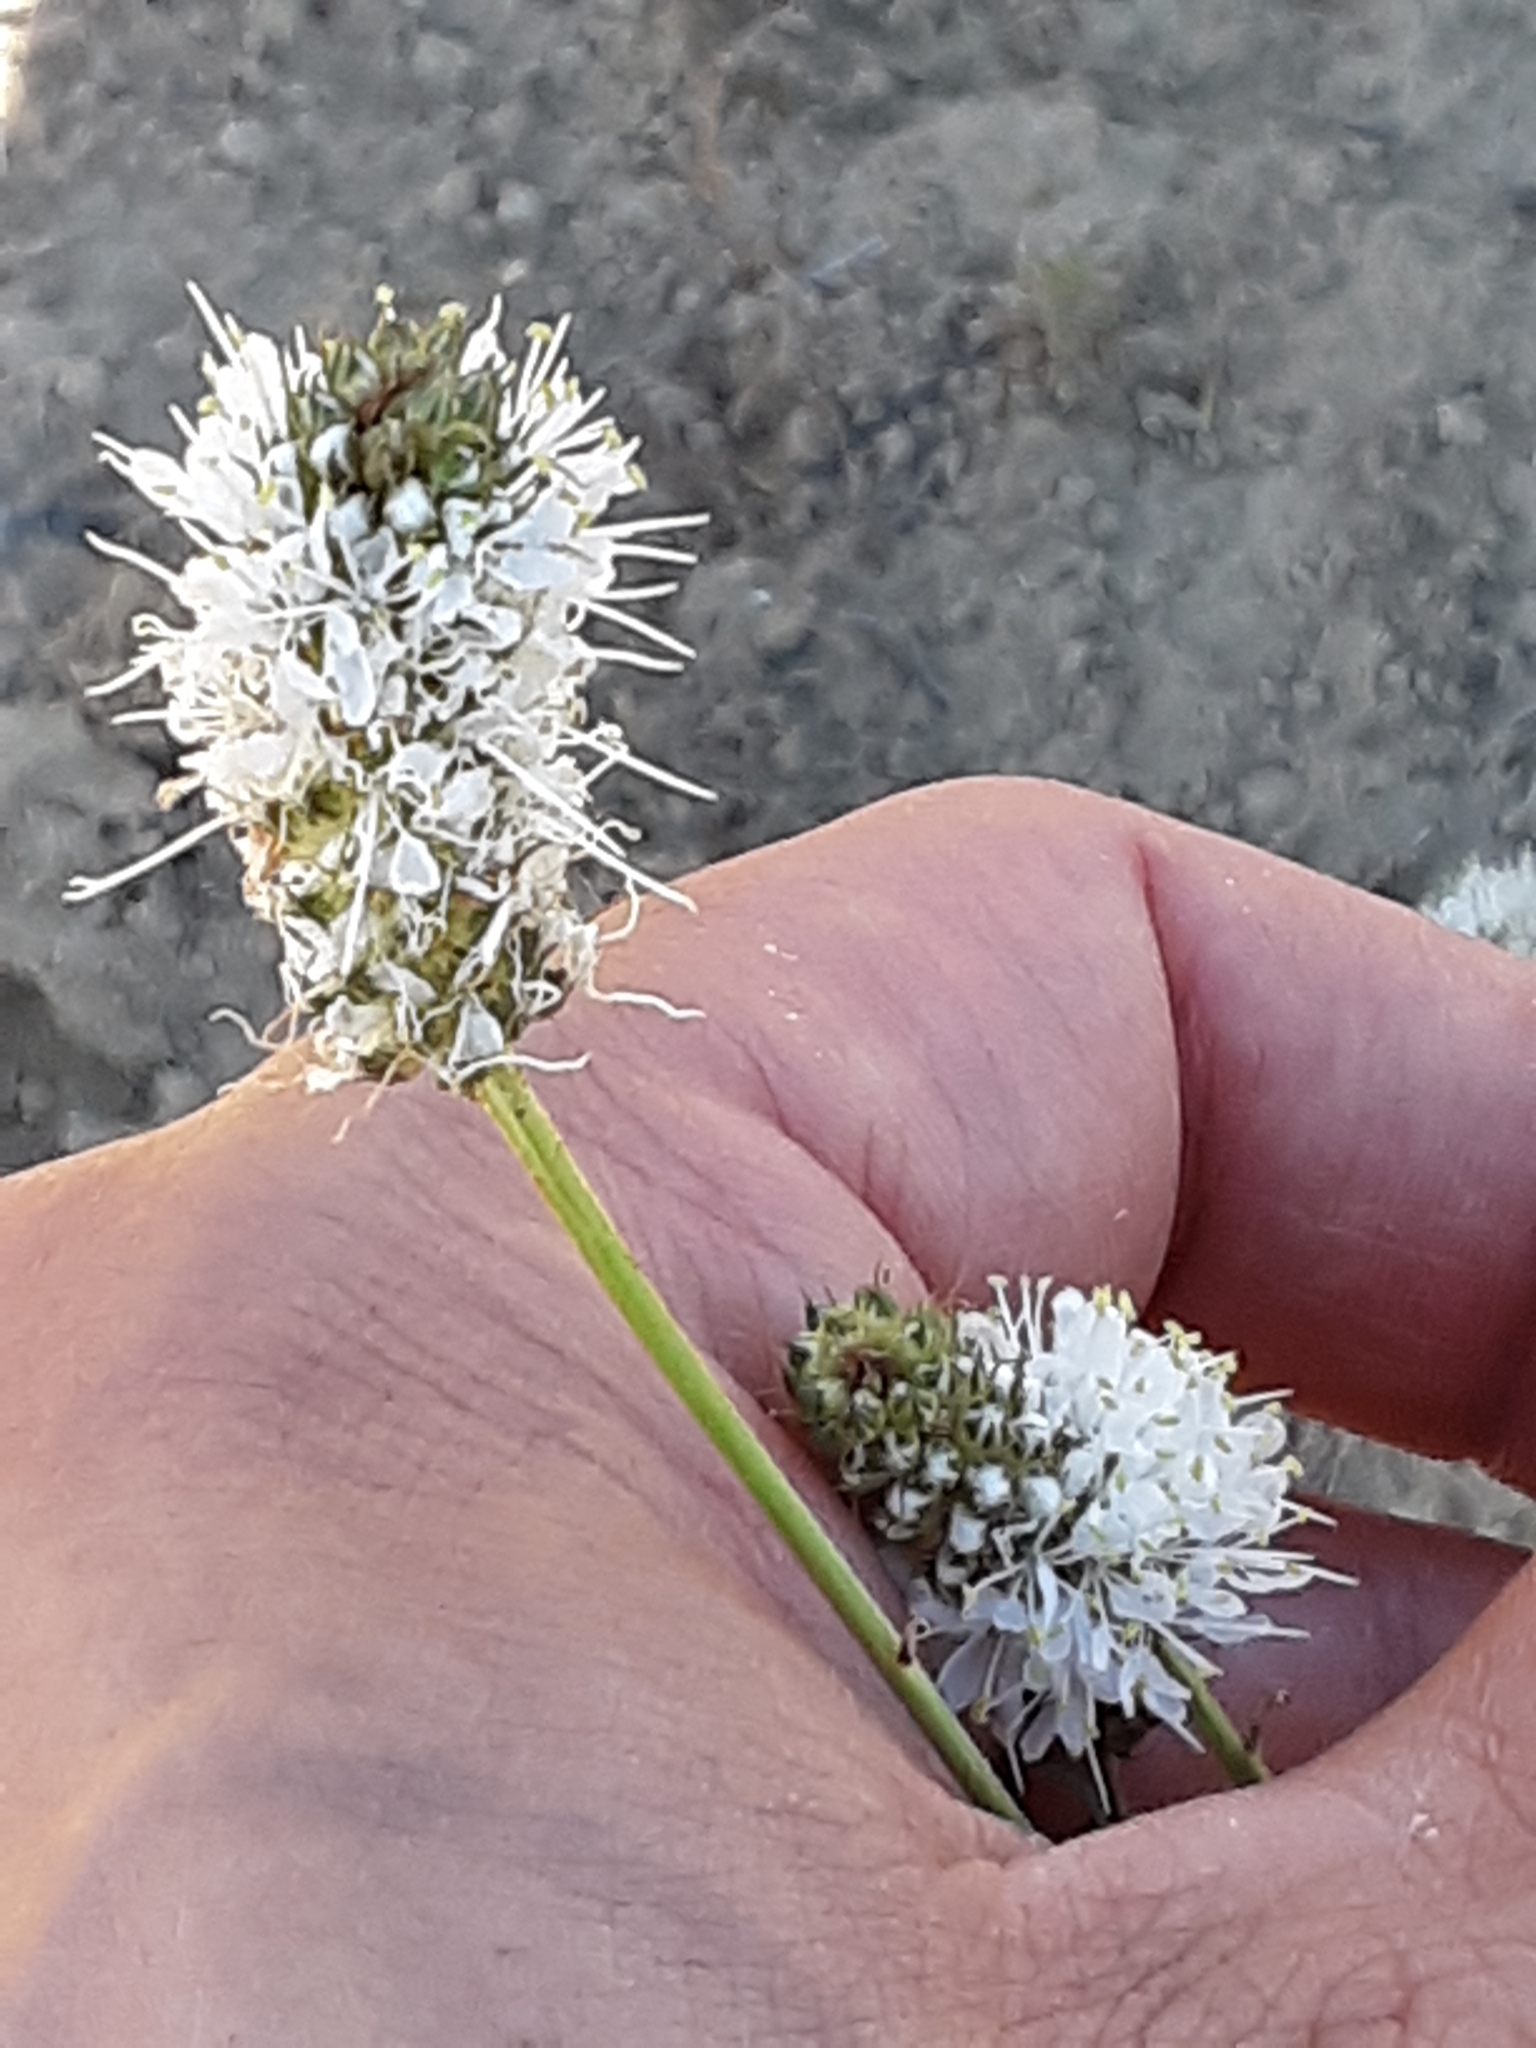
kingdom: Plantae
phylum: Tracheophyta
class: Magnoliopsida
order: Fabales
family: Fabaceae
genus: Dalea
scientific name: Dalea candida
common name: White prairie-clover
